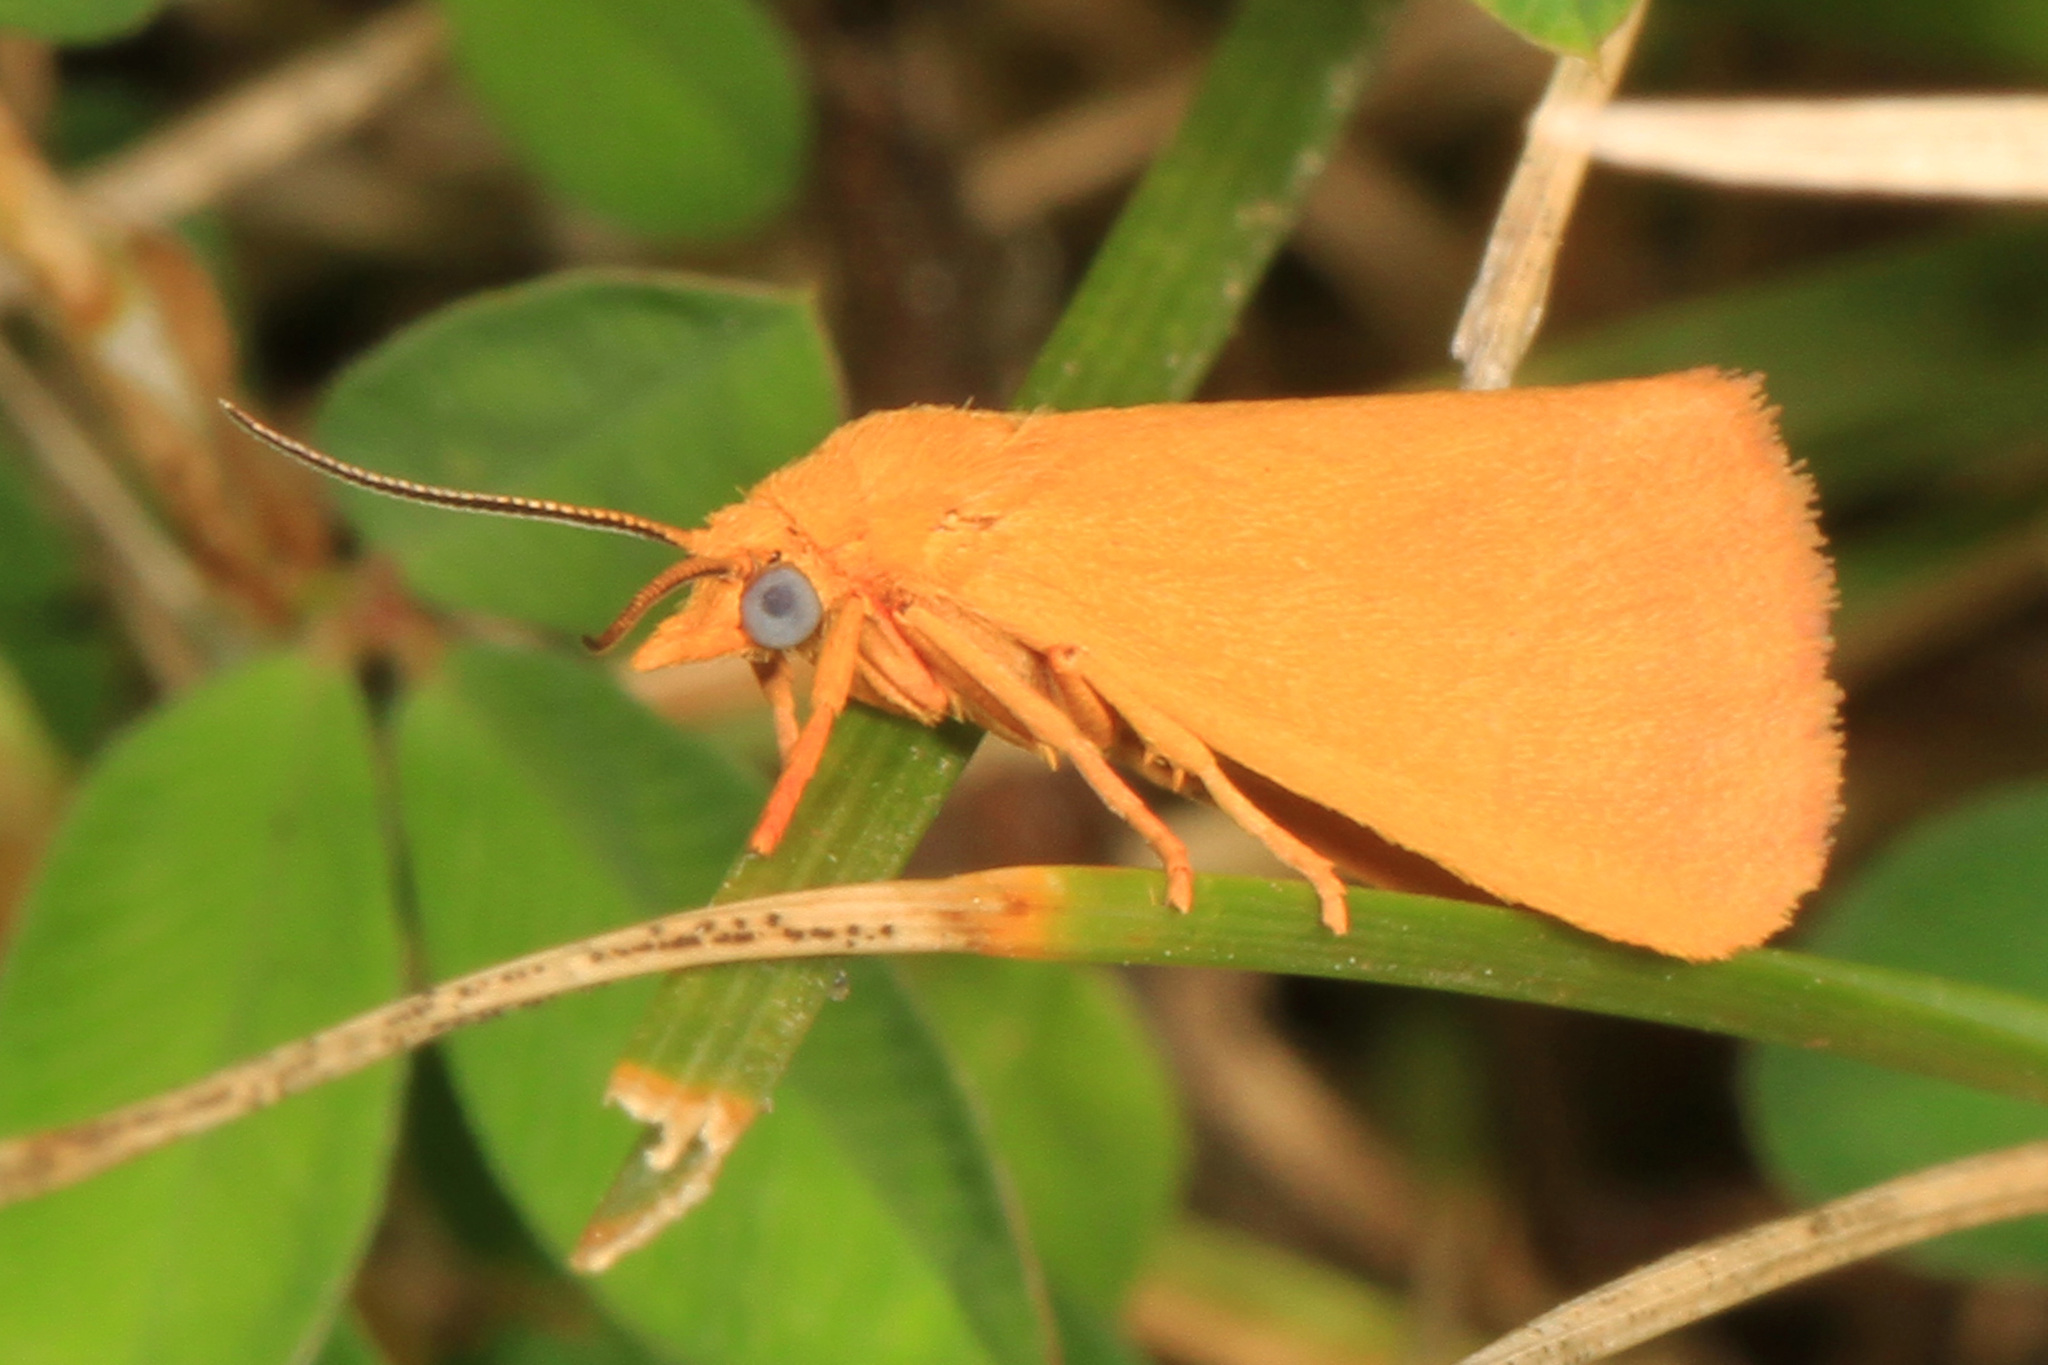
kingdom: Animalia
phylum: Arthropoda
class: Insecta
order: Lepidoptera
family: Erebidae
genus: Virbia
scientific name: Virbia aurantiaca
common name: Orange virbia moth
